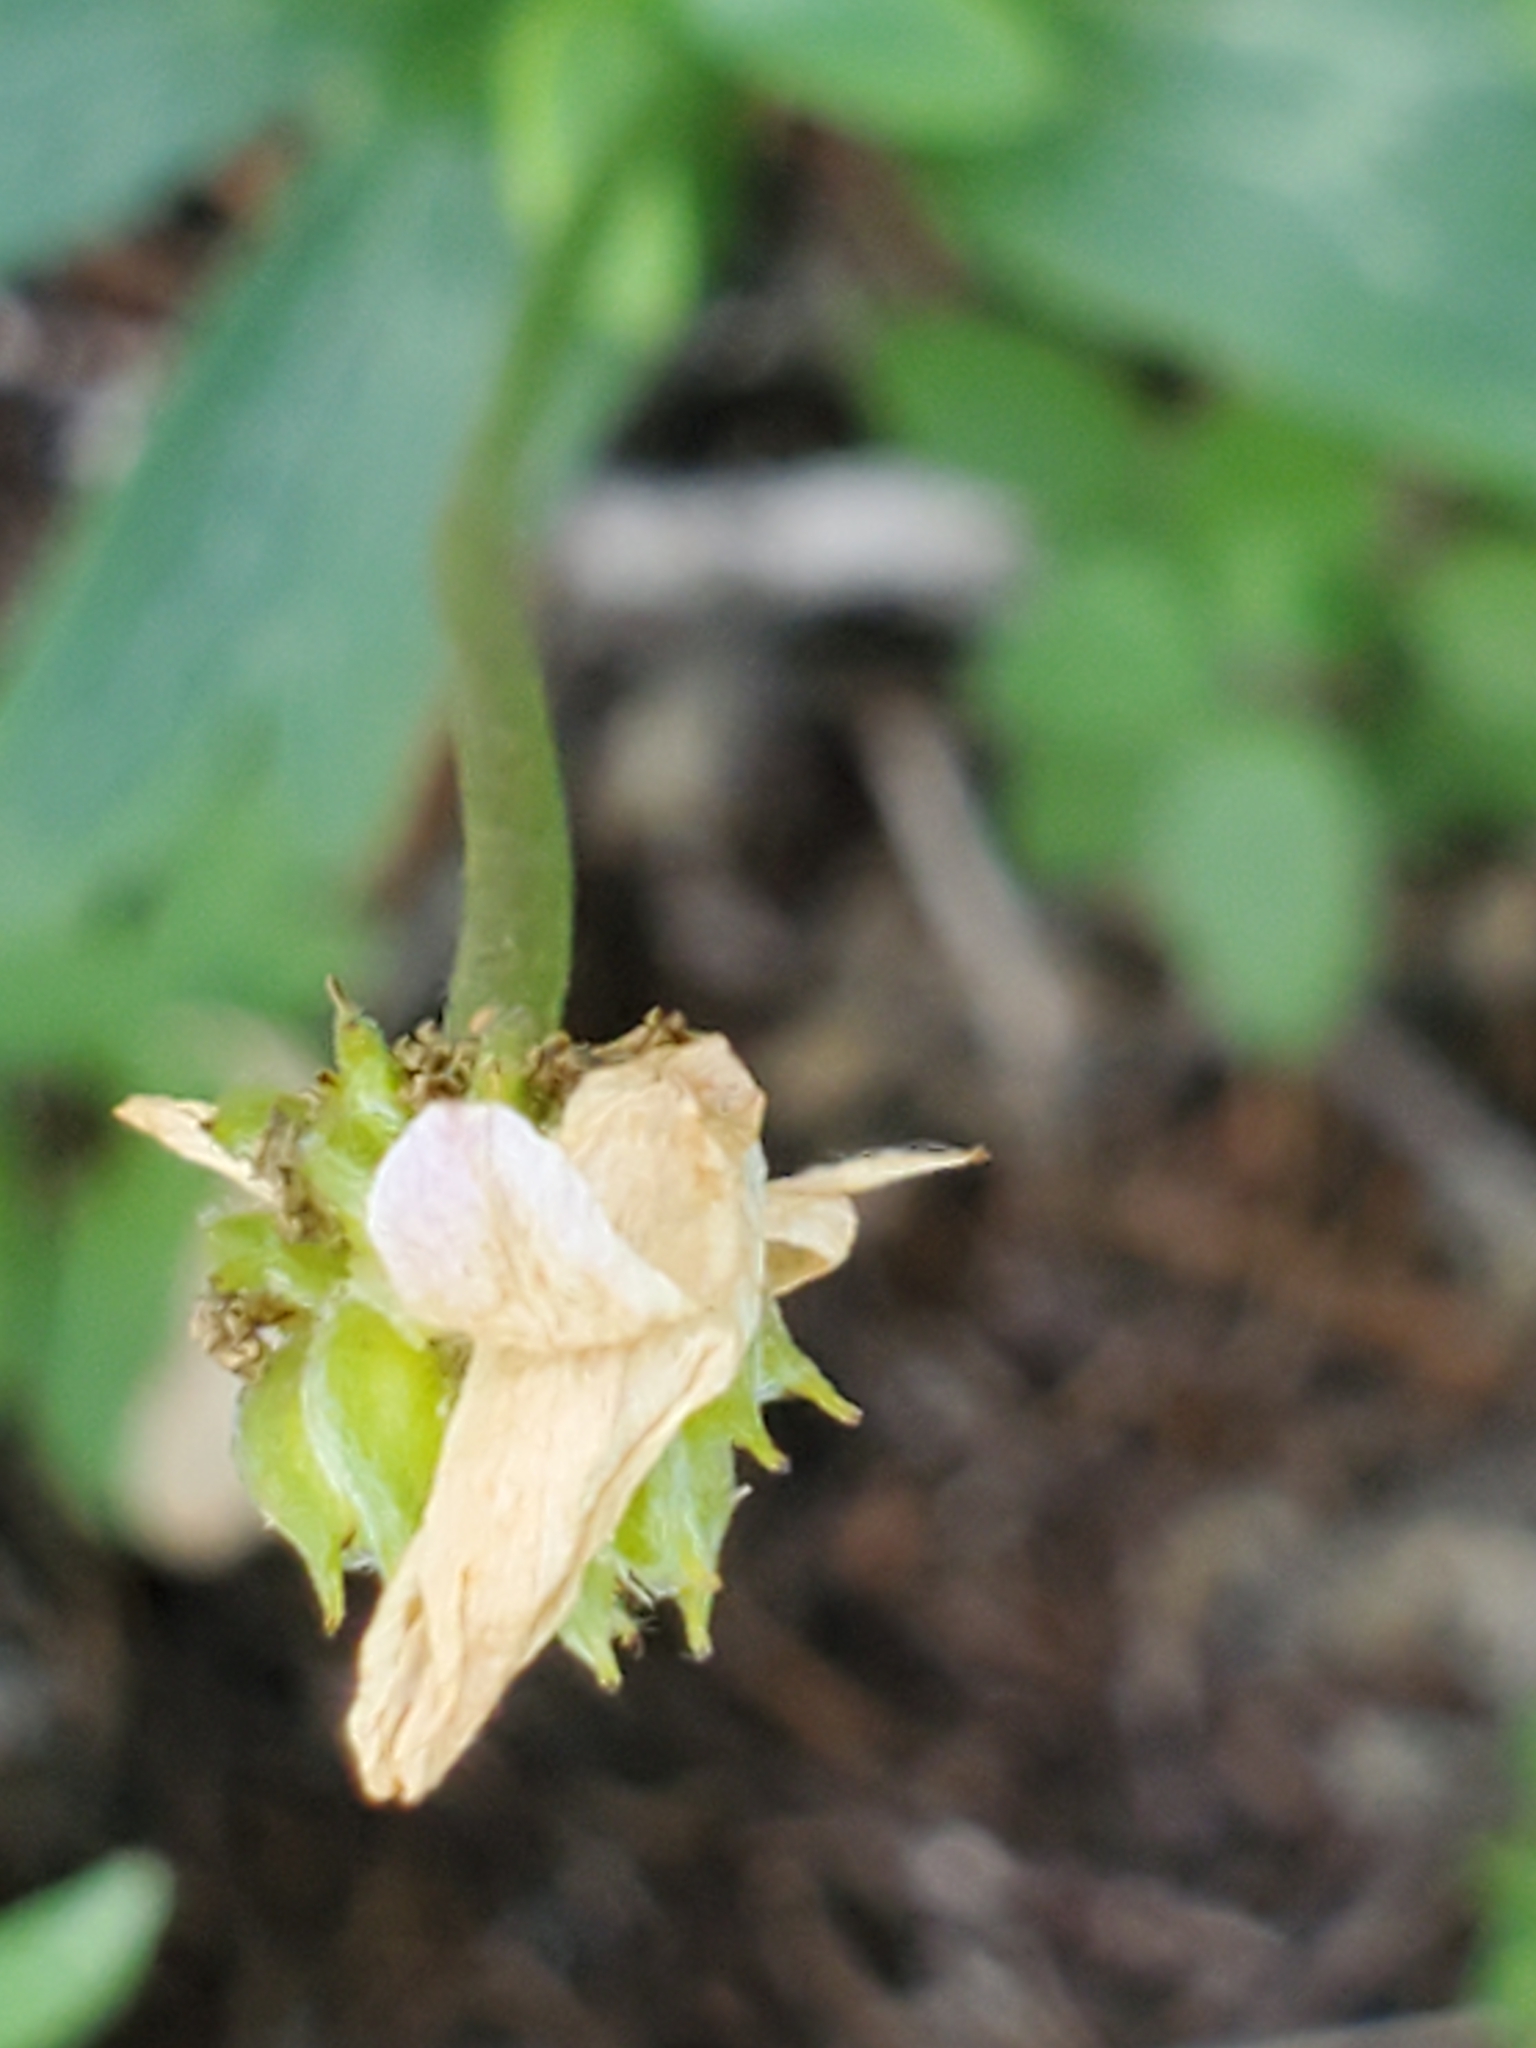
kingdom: Plantae
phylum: Tracheophyta
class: Magnoliopsida
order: Ranunculales
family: Ranunculaceae
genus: Anemone
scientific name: Anemone edwardsiana
